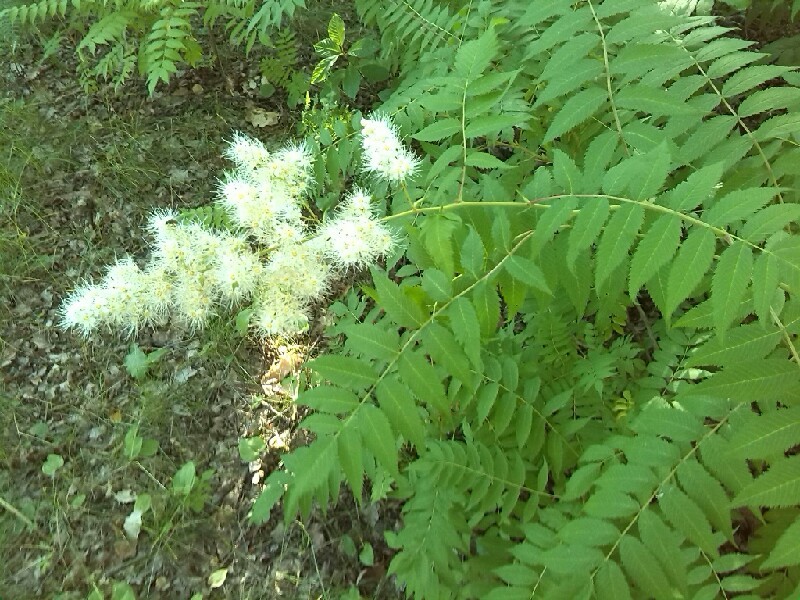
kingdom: Plantae
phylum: Tracheophyta
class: Magnoliopsida
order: Rosales
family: Rosaceae
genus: Sorbaria
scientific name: Sorbaria sorbifolia
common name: False spiraea
